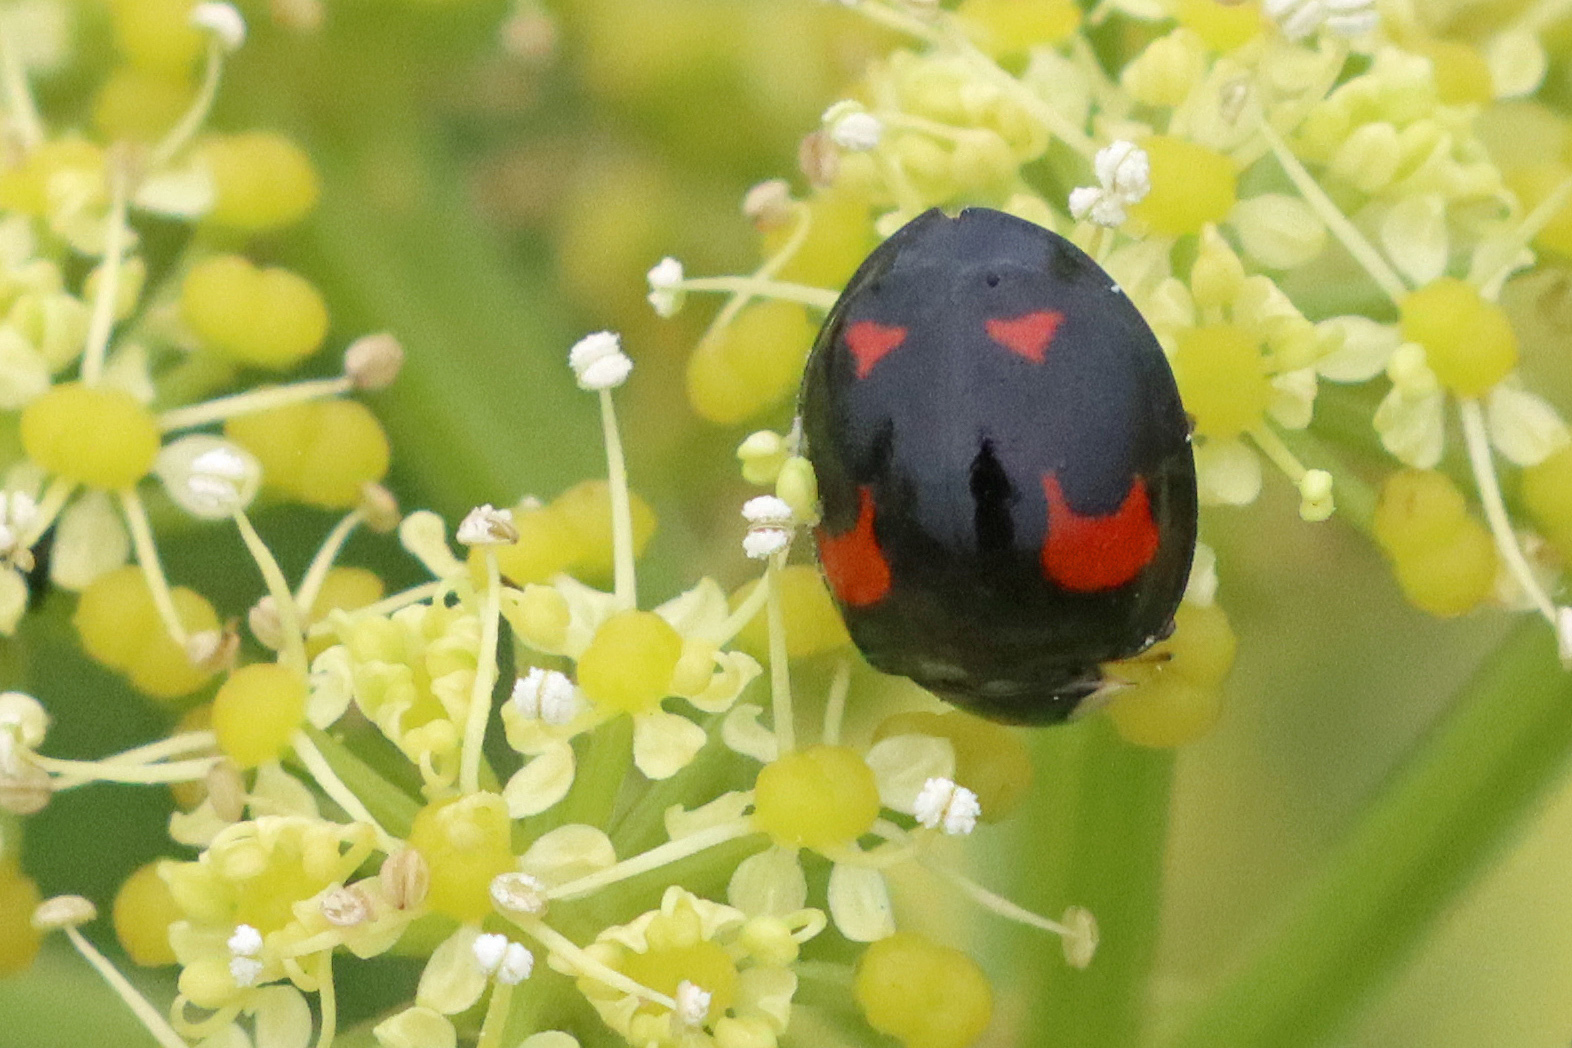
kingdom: Animalia
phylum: Arthropoda
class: Insecta
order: Coleoptera
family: Coccinellidae
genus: Harmonia
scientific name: Harmonia axyridis
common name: Harlequin ladybird
